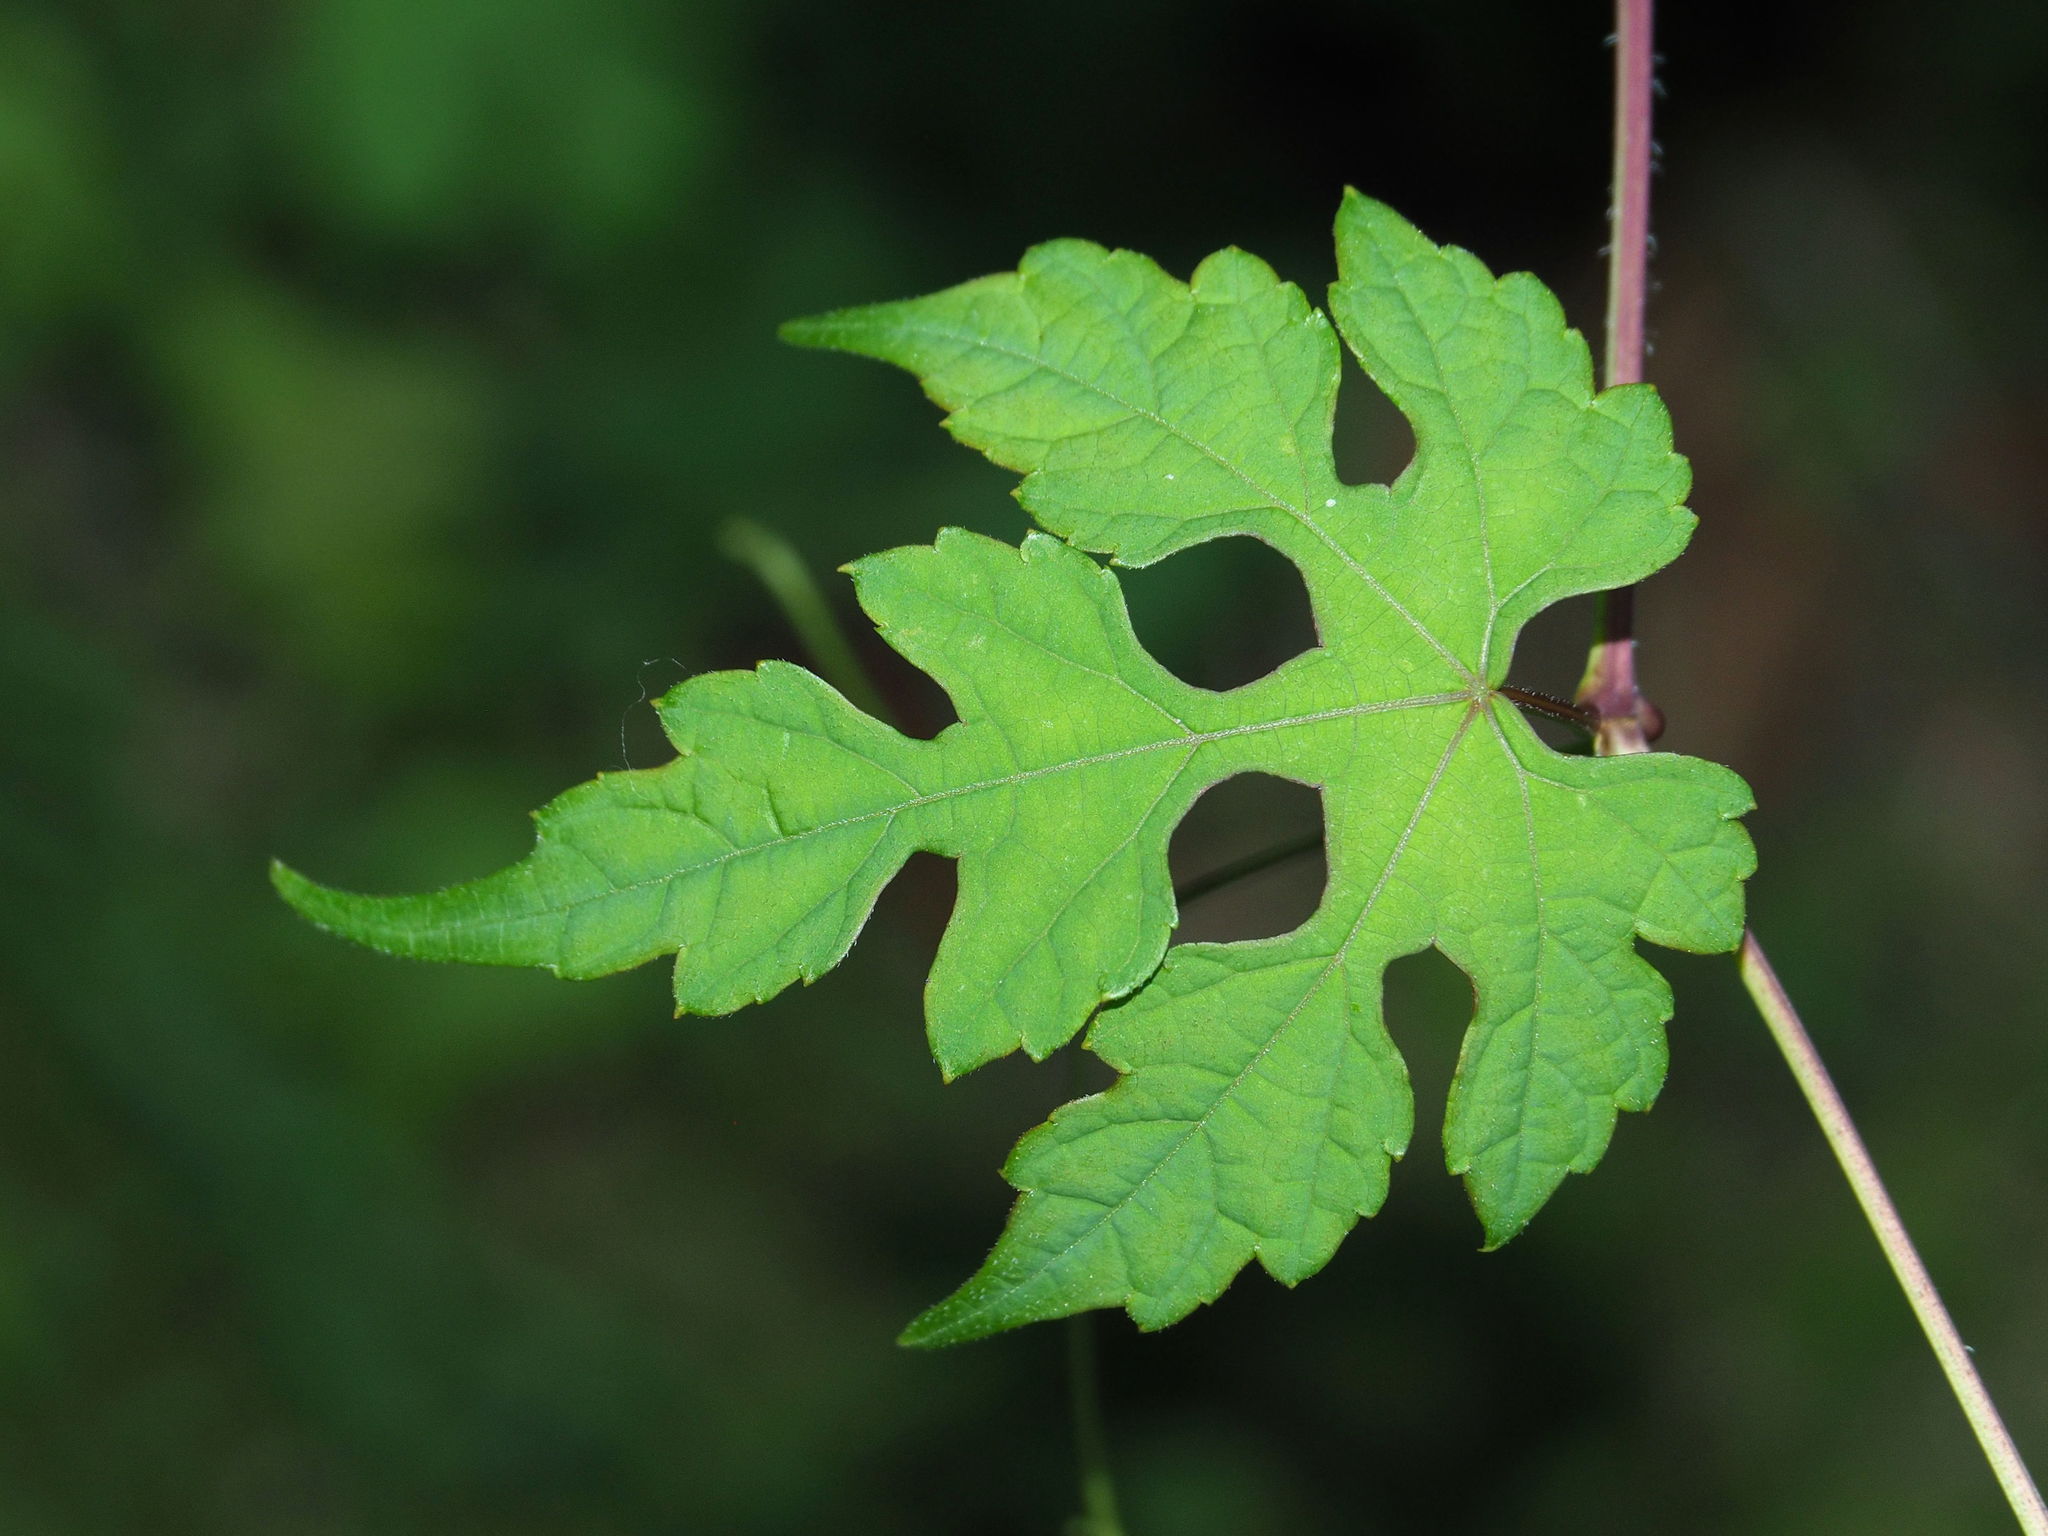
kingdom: Plantae
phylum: Tracheophyta
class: Magnoliopsida
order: Vitales
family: Vitaceae
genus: Ampelopsis
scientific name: Ampelopsis glandulosa
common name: Amur peppervine
